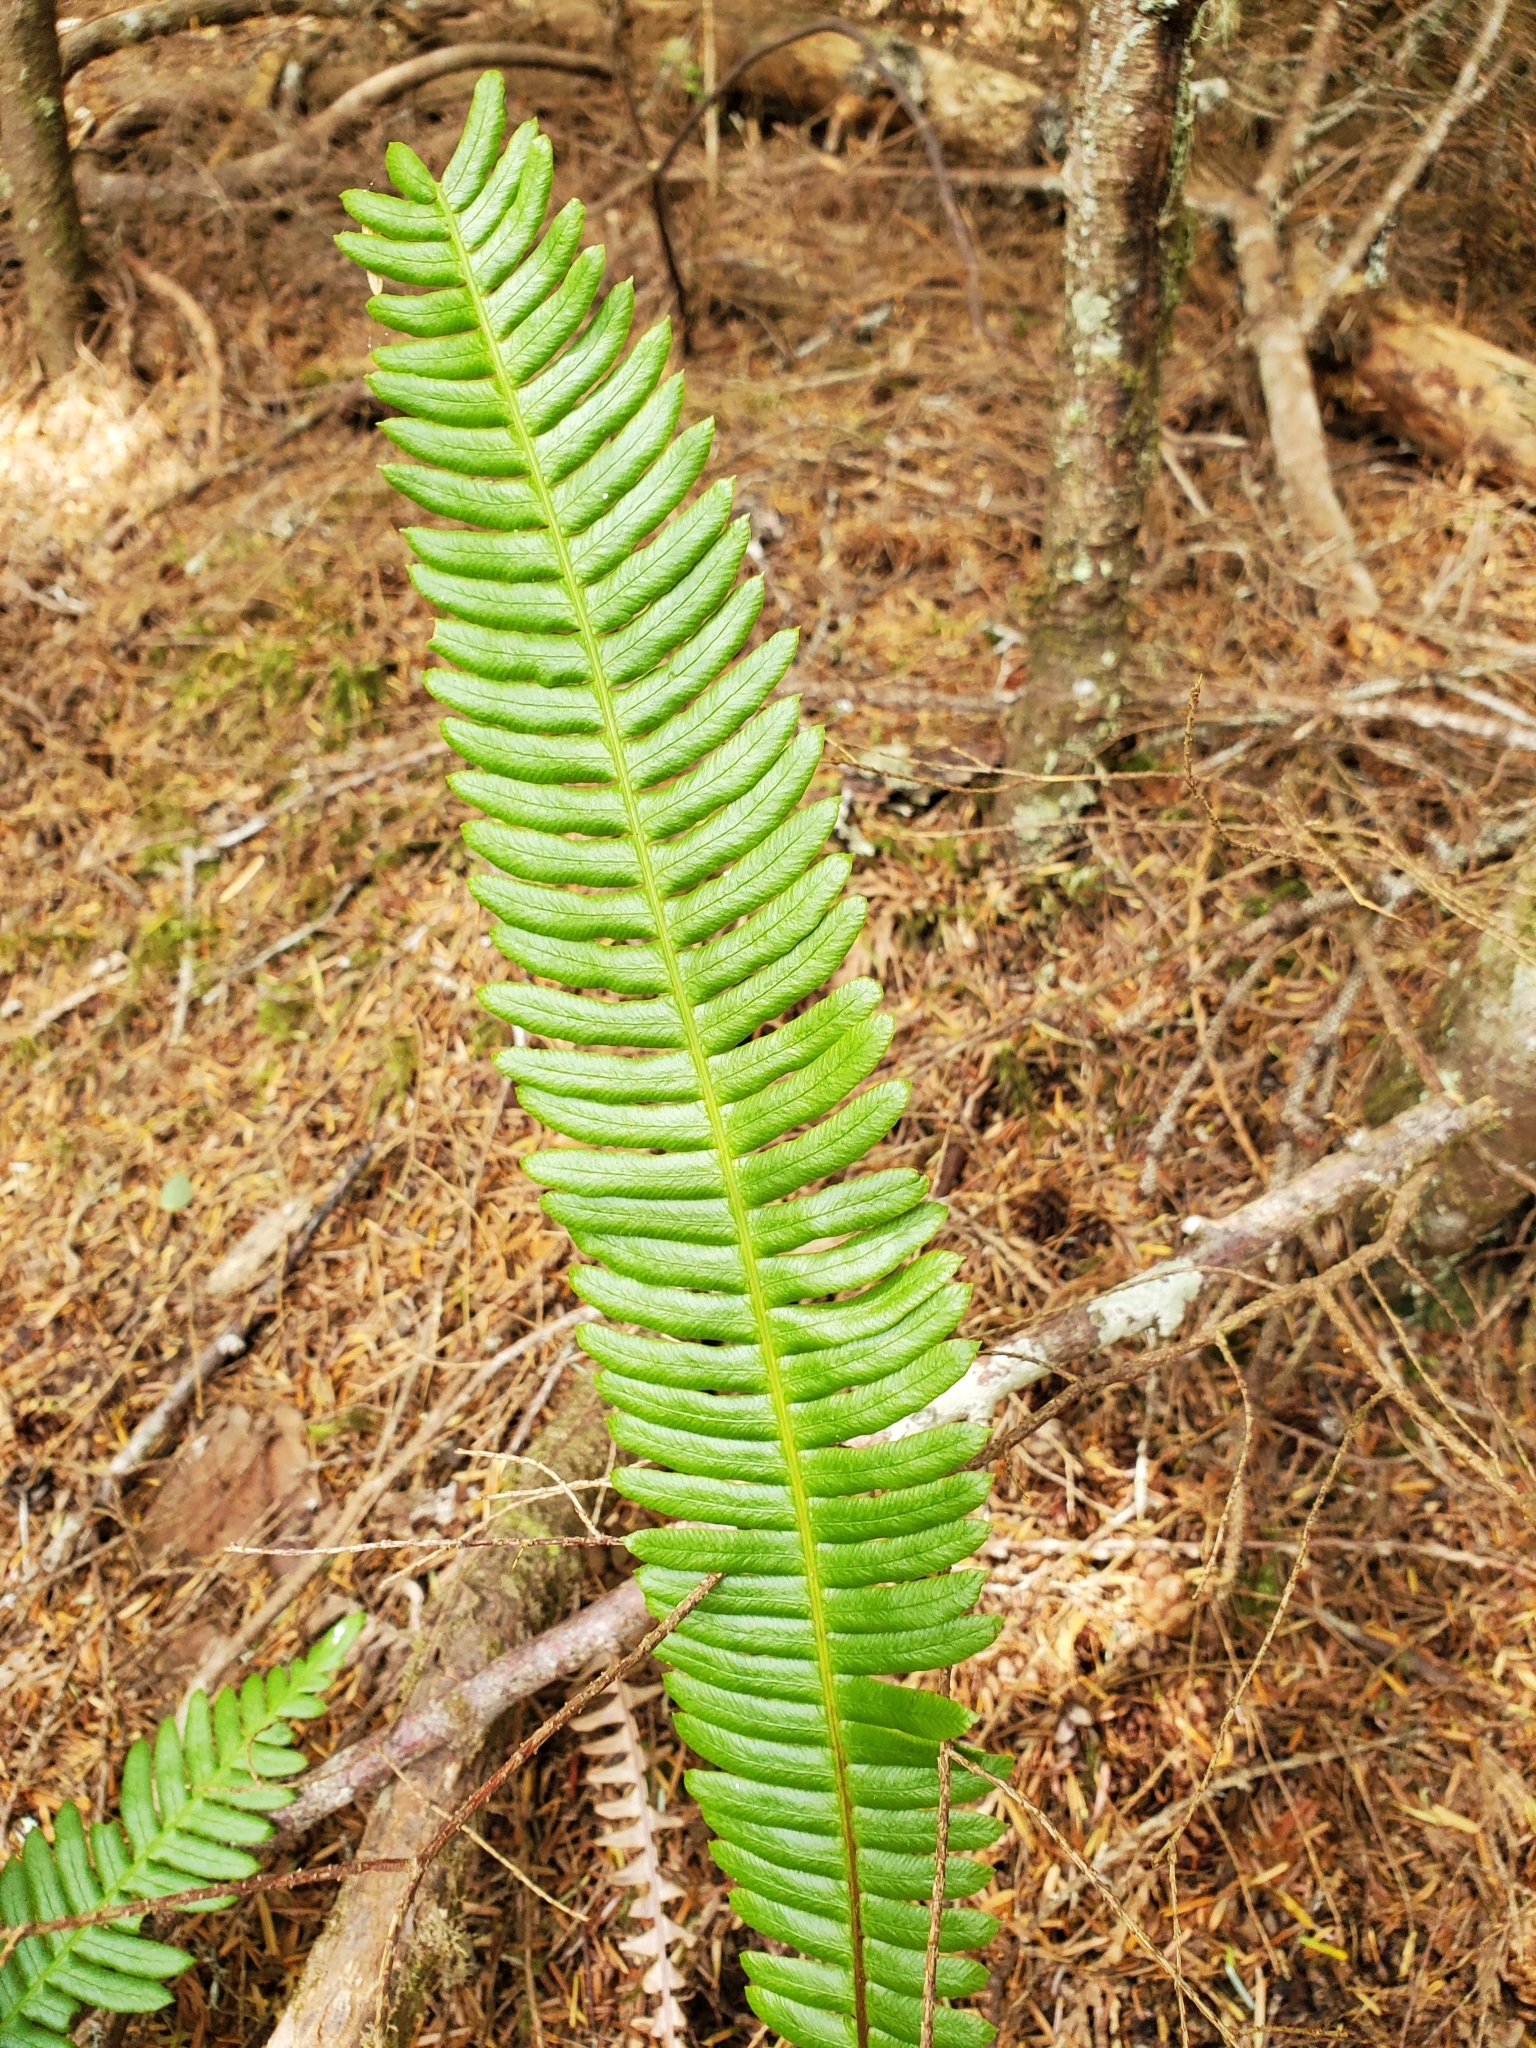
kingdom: Plantae
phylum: Tracheophyta
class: Polypodiopsida
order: Polypodiales
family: Blechnaceae
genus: Struthiopteris
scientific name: Struthiopteris spicant
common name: Deer fern
